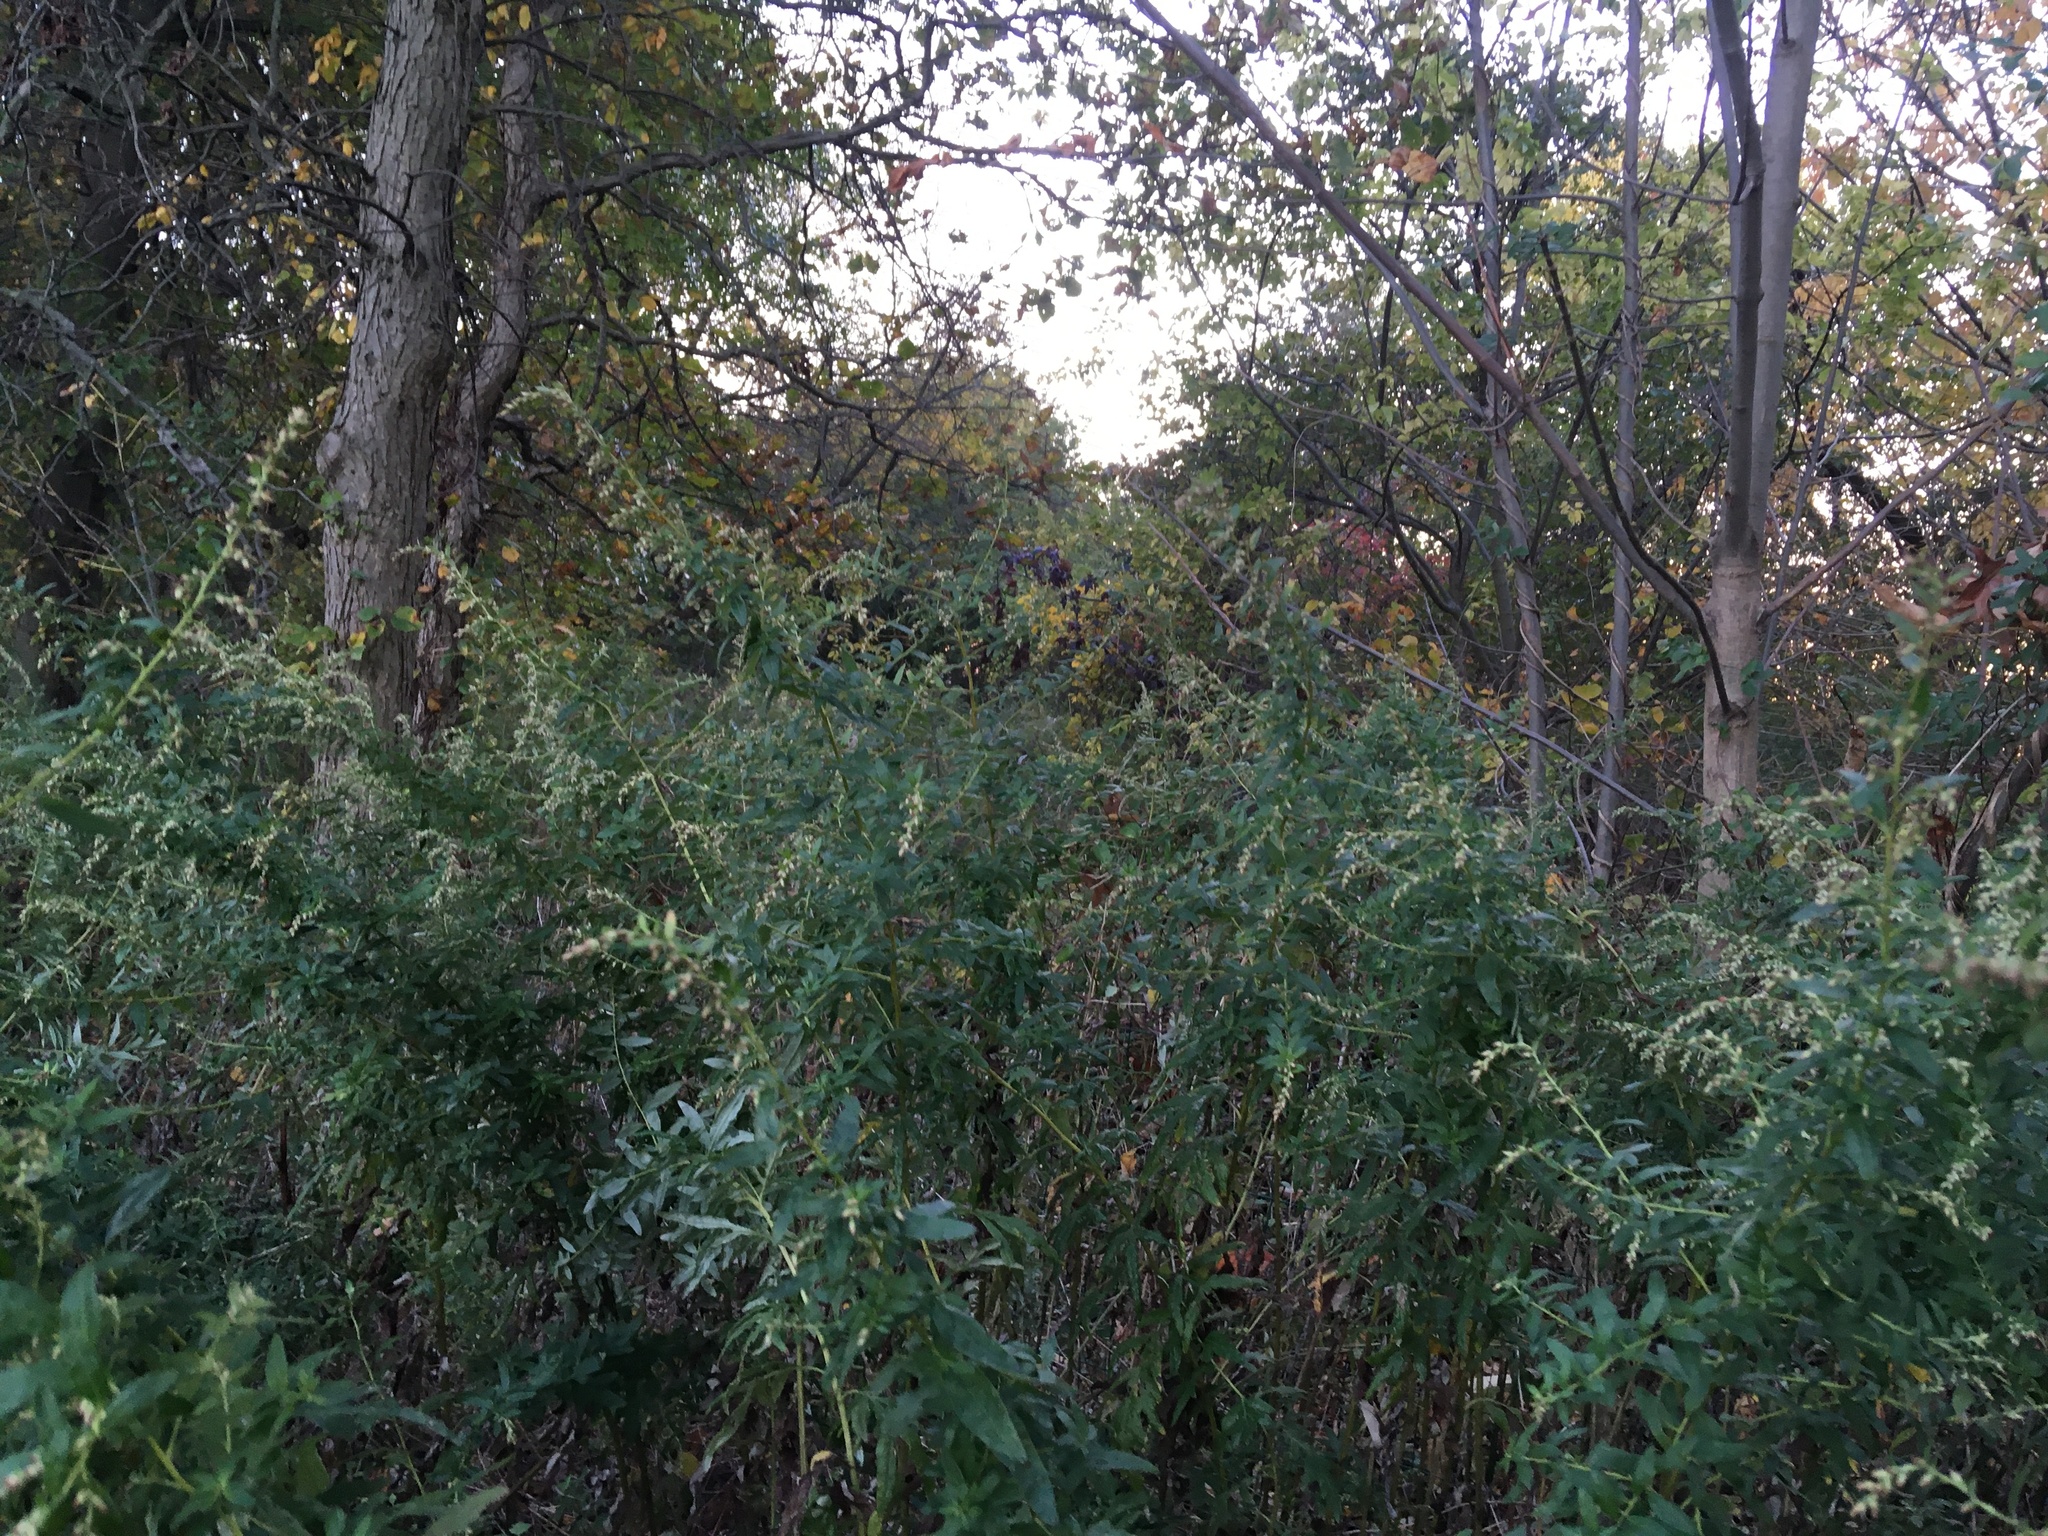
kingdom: Plantae
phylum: Tracheophyta
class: Magnoliopsida
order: Asterales
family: Asteraceae
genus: Artemisia
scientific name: Artemisia vulgaris
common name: Mugwort
